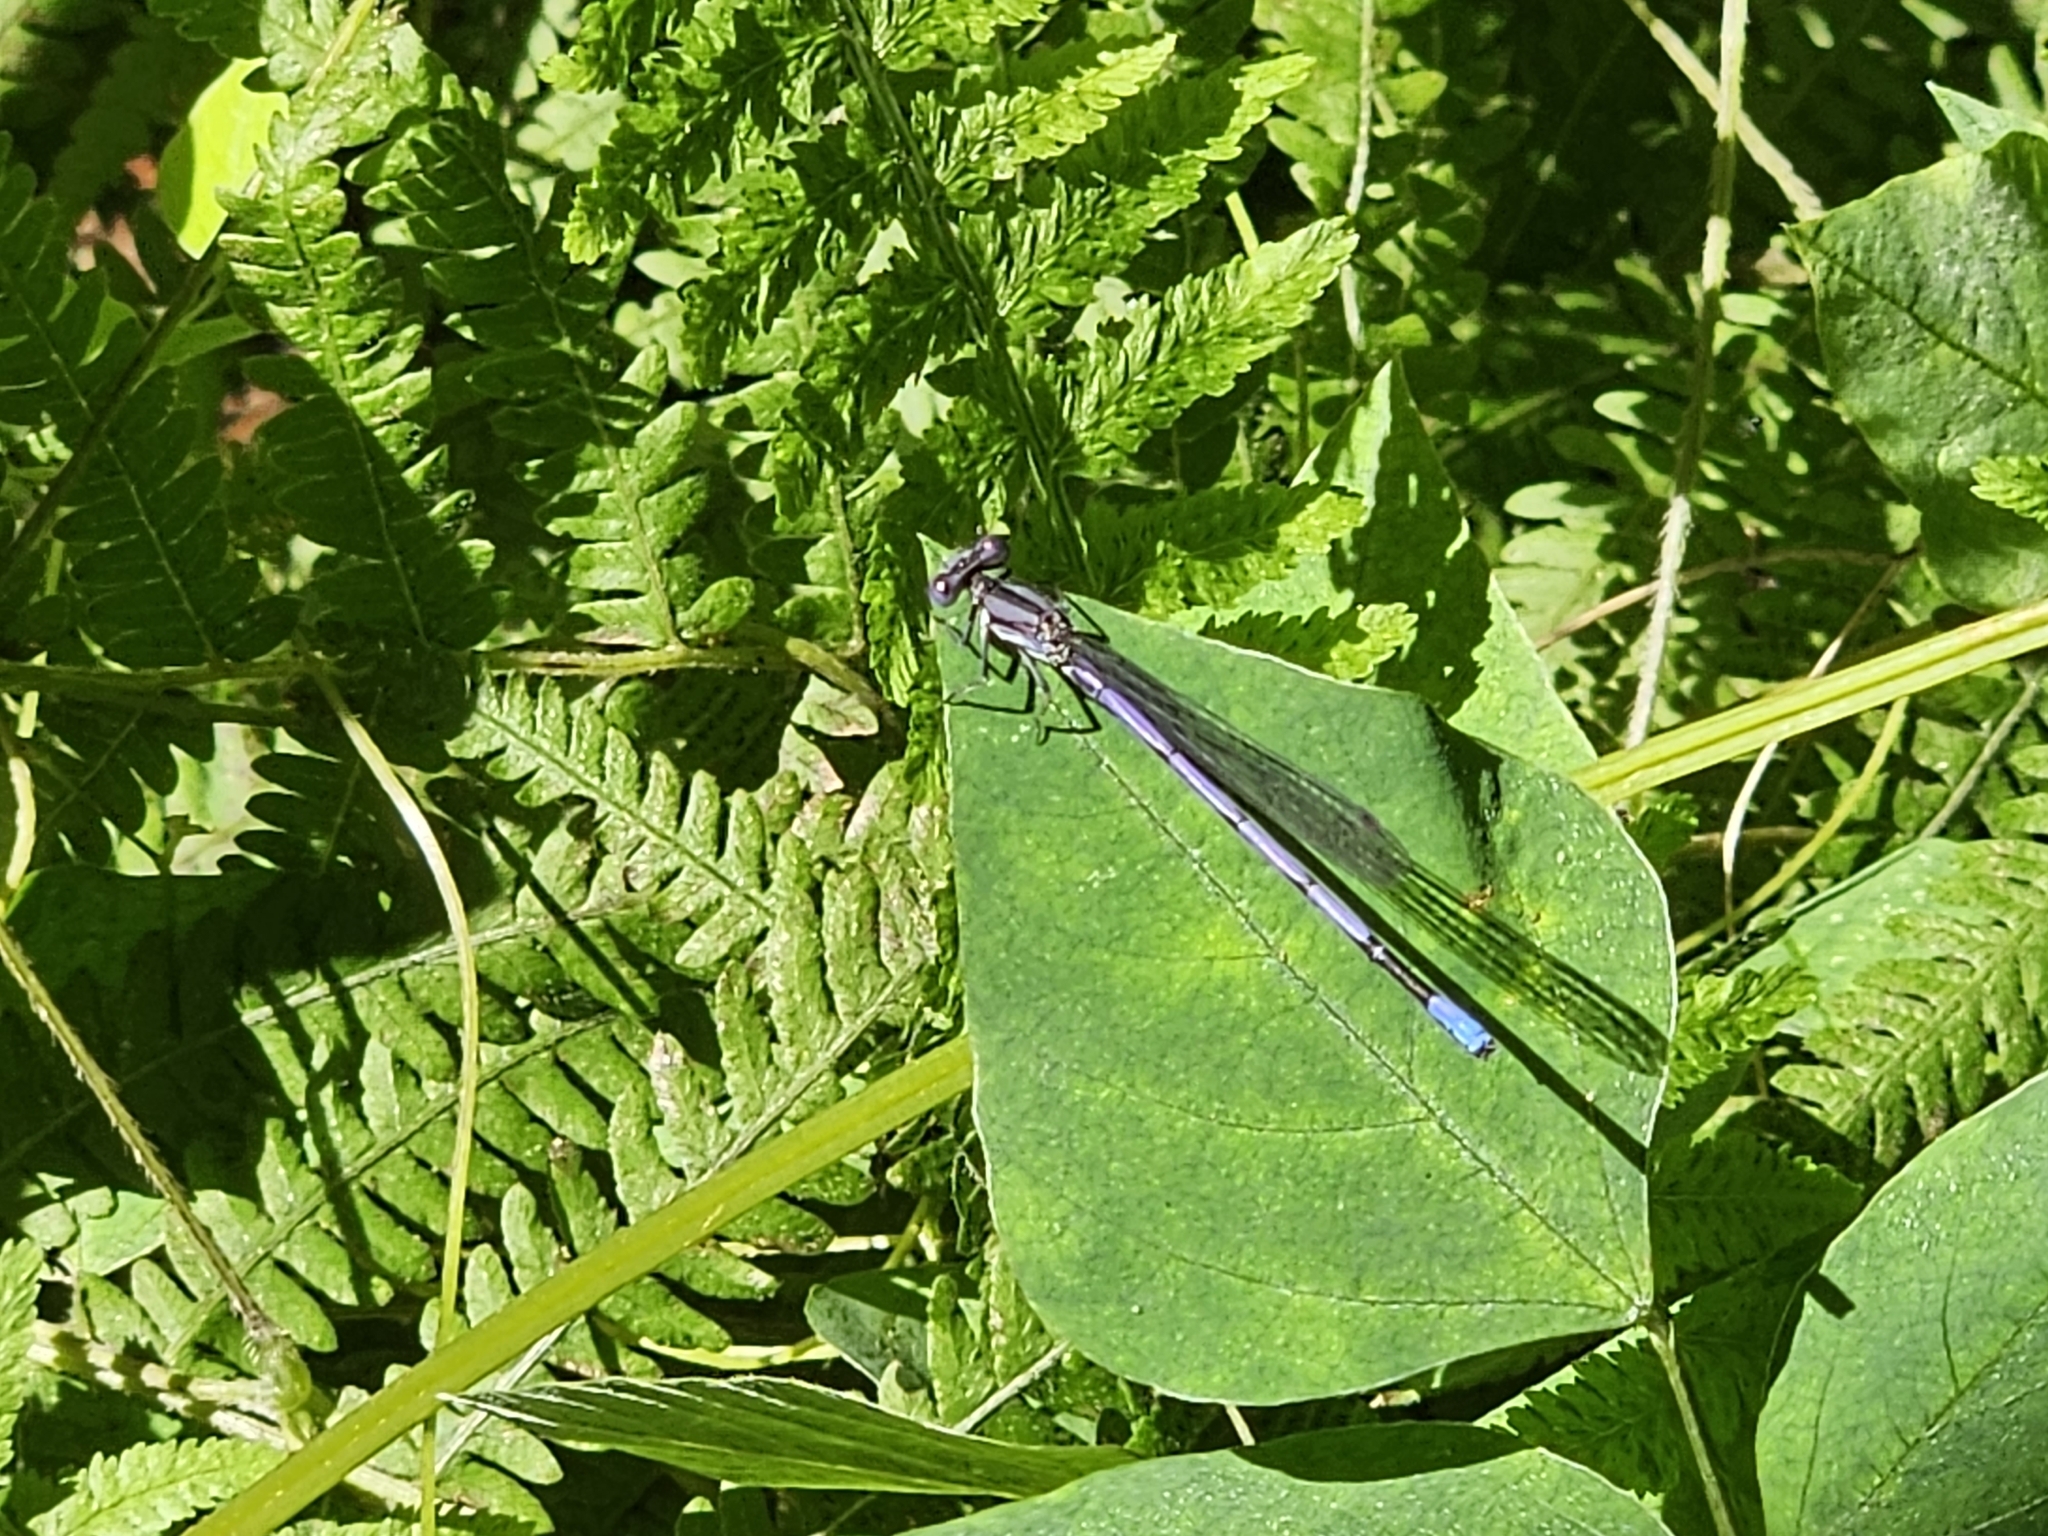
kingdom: Animalia
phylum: Arthropoda
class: Insecta
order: Odonata
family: Coenagrionidae
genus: Argia
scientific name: Argia fumipennis
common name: Variable dancer
